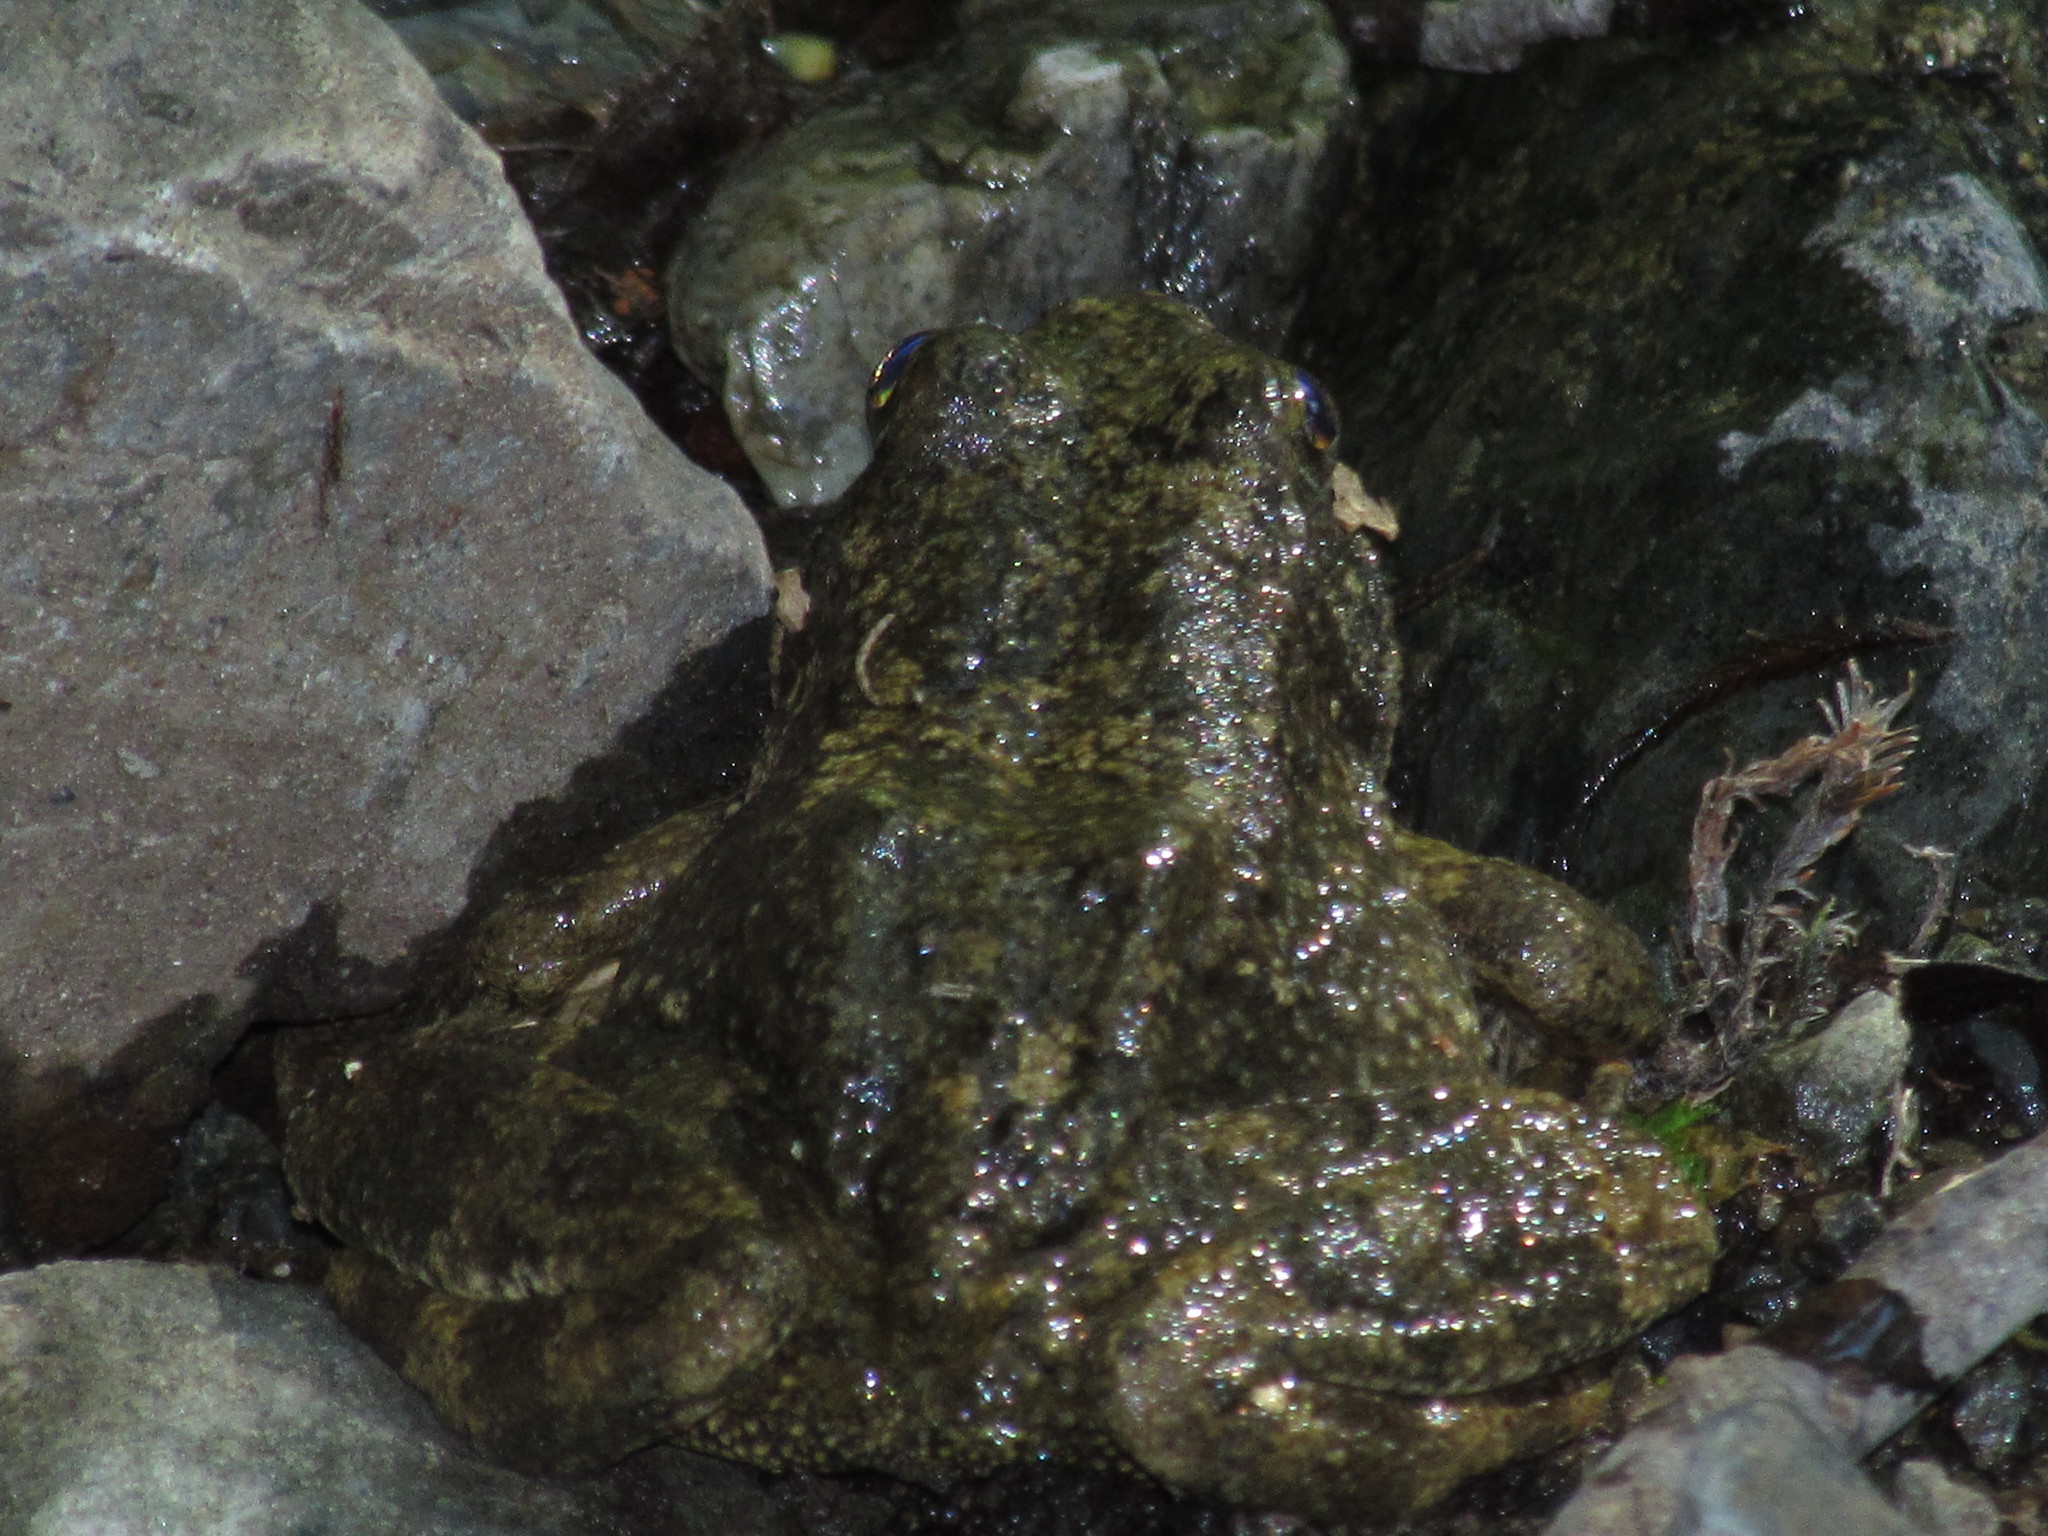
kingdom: Animalia
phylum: Chordata
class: Amphibia
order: Anura
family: Ranidae
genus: Rana
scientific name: Rana boylii
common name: Foothill yellow-legged frog
